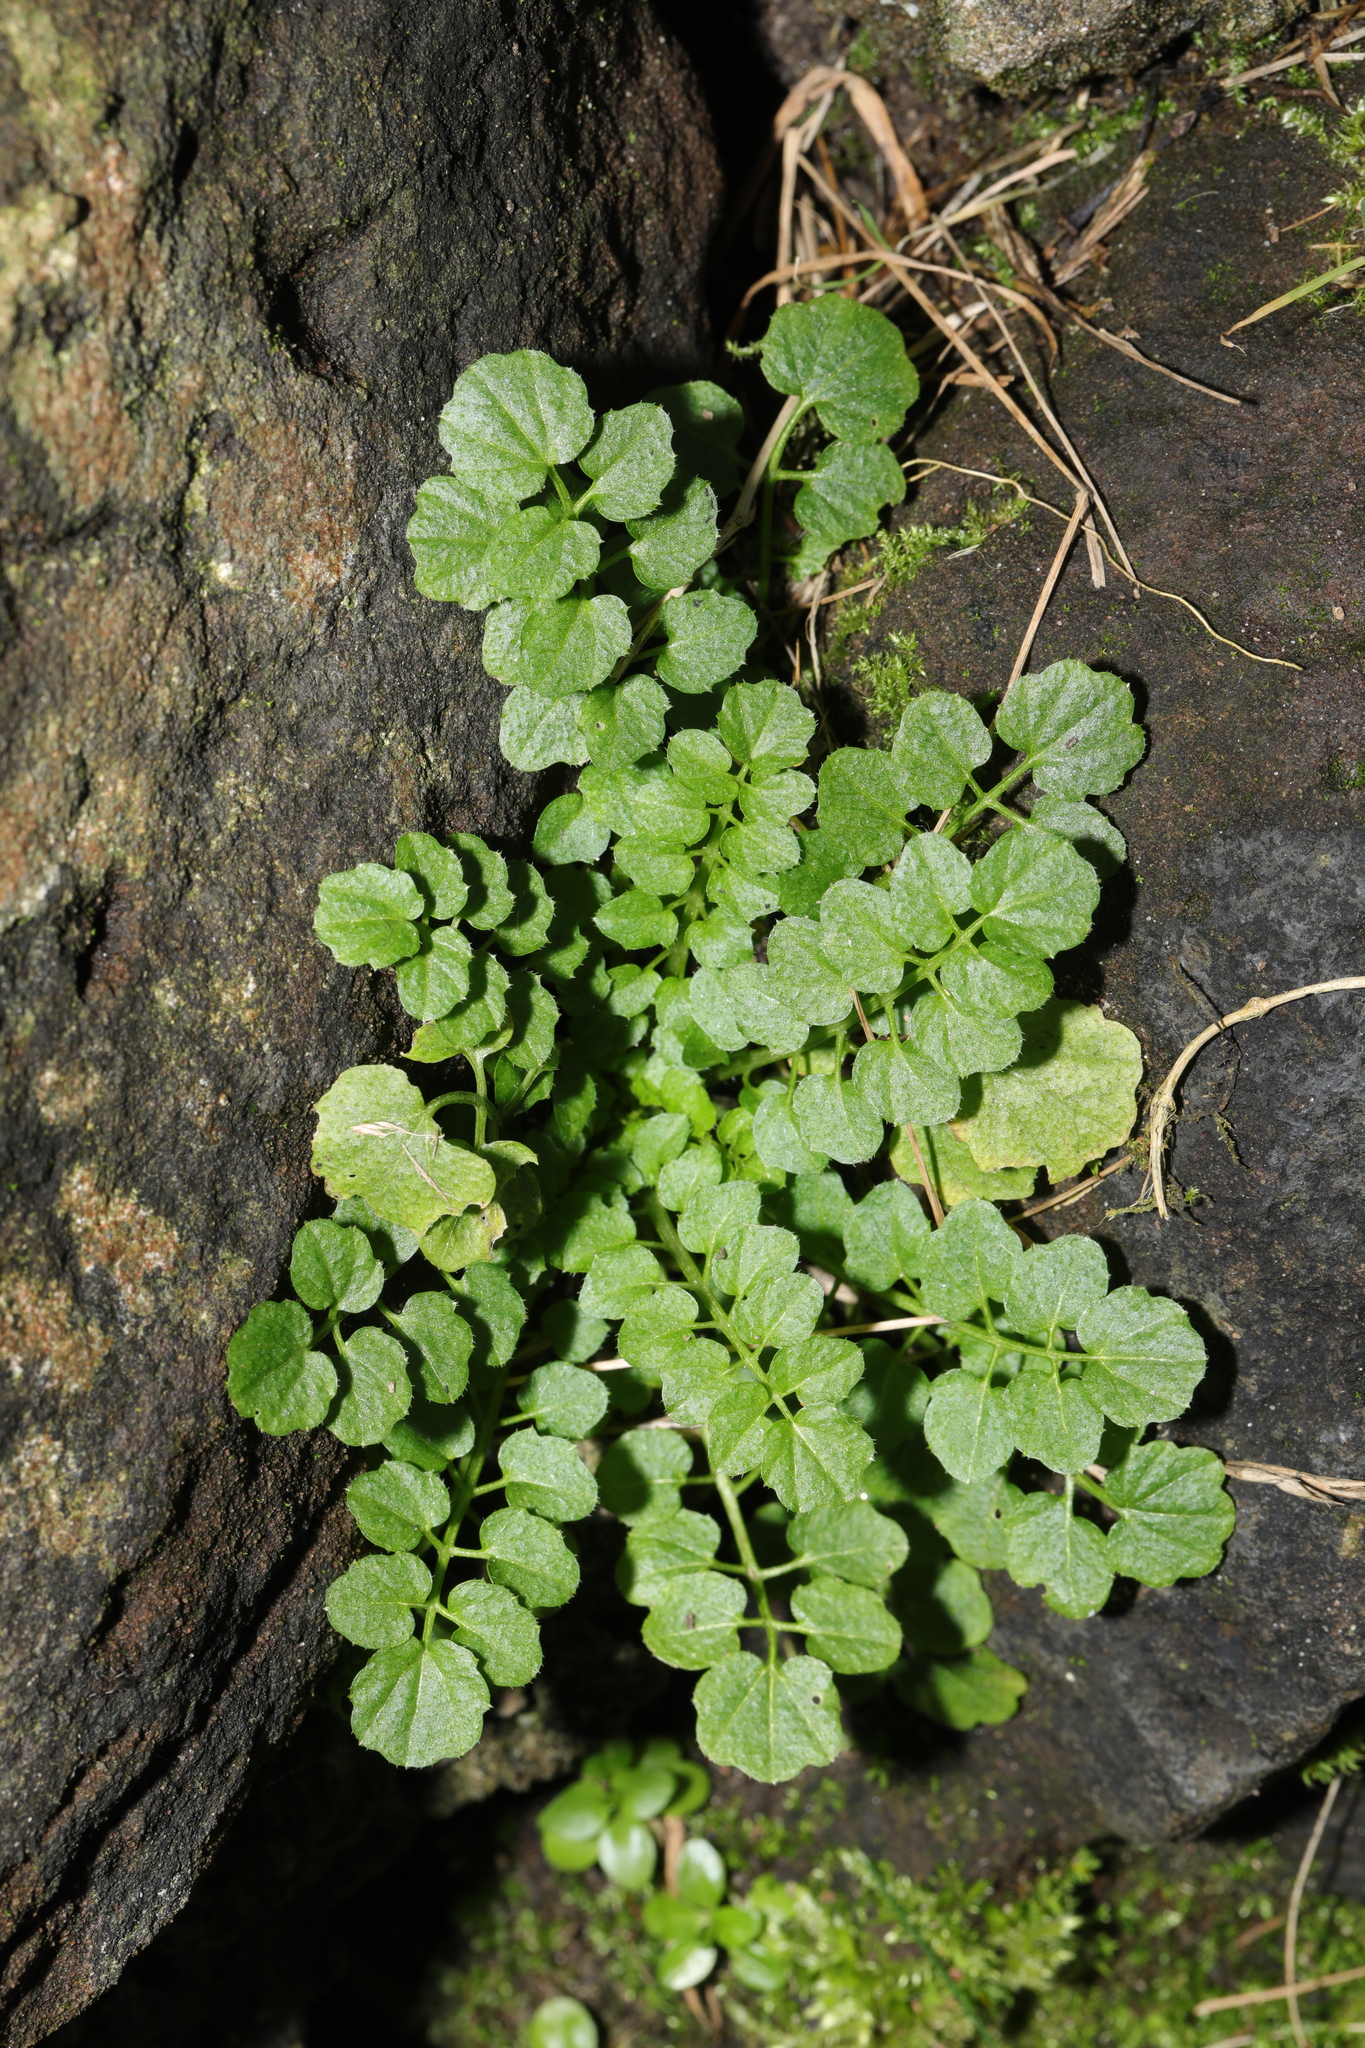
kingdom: Plantae
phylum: Tracheophyta
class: Magnoliopsida
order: Brassicales
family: Brassicaceae
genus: Cardamine
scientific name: Cardamine flexuosa
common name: Woodland bittercress
